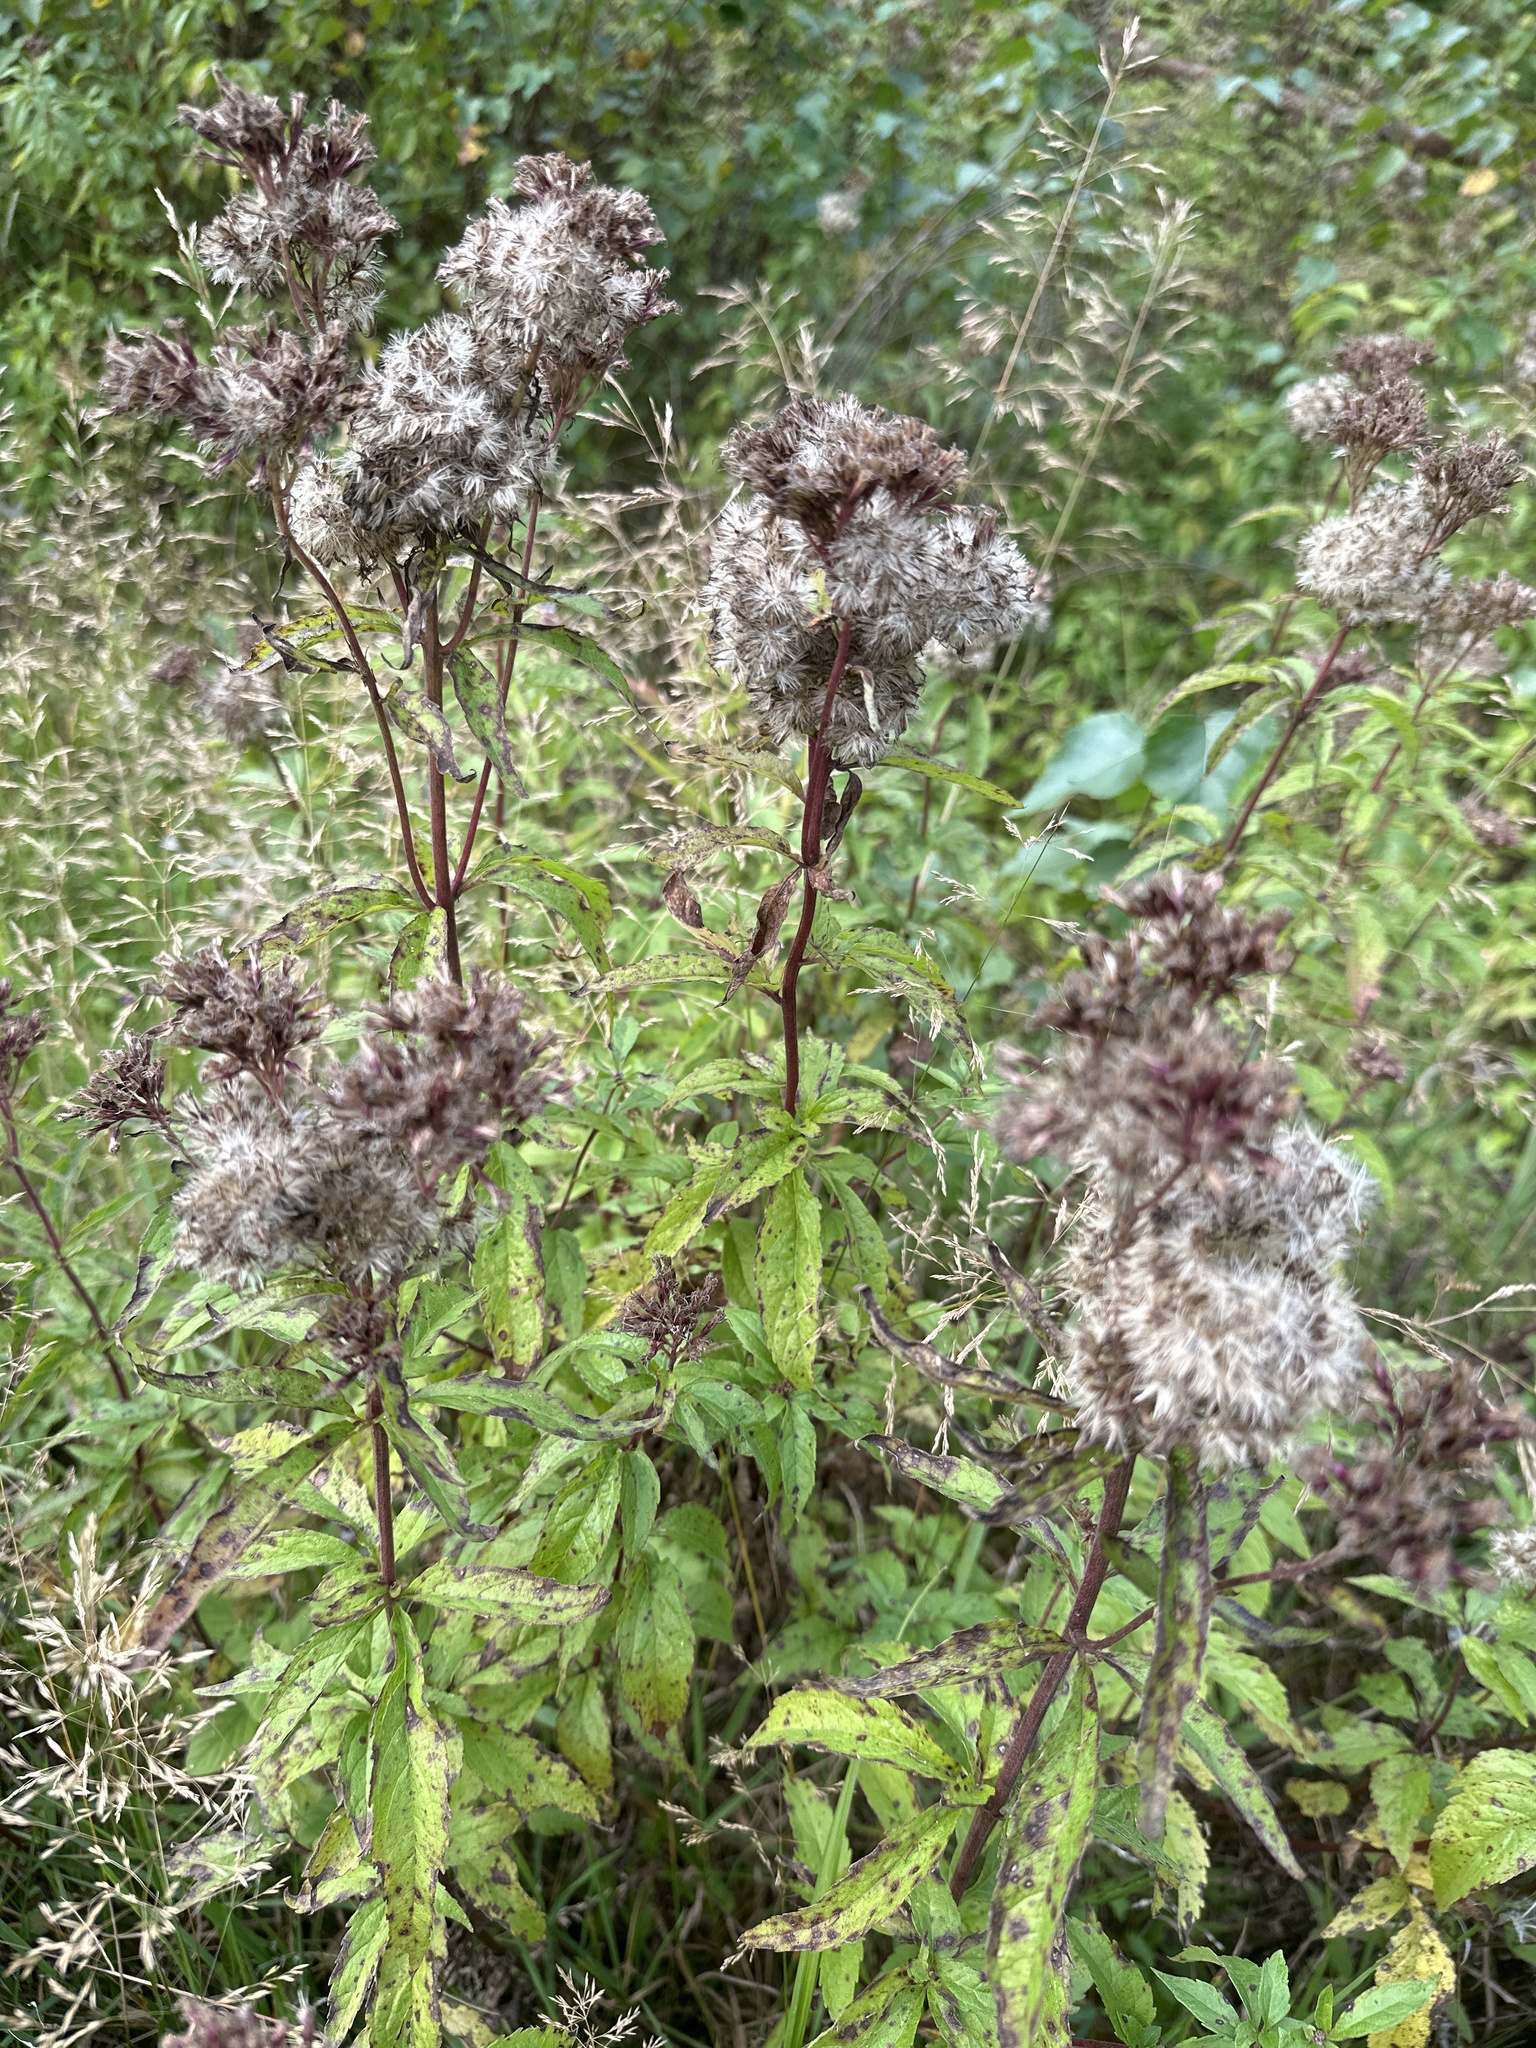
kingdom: Plantae
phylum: Tracheophyta
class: Magnoliopsida
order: Asterales
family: Asteraceae
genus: Eupatorium
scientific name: Eupatorium cannabinum
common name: Hemp-agrimony
